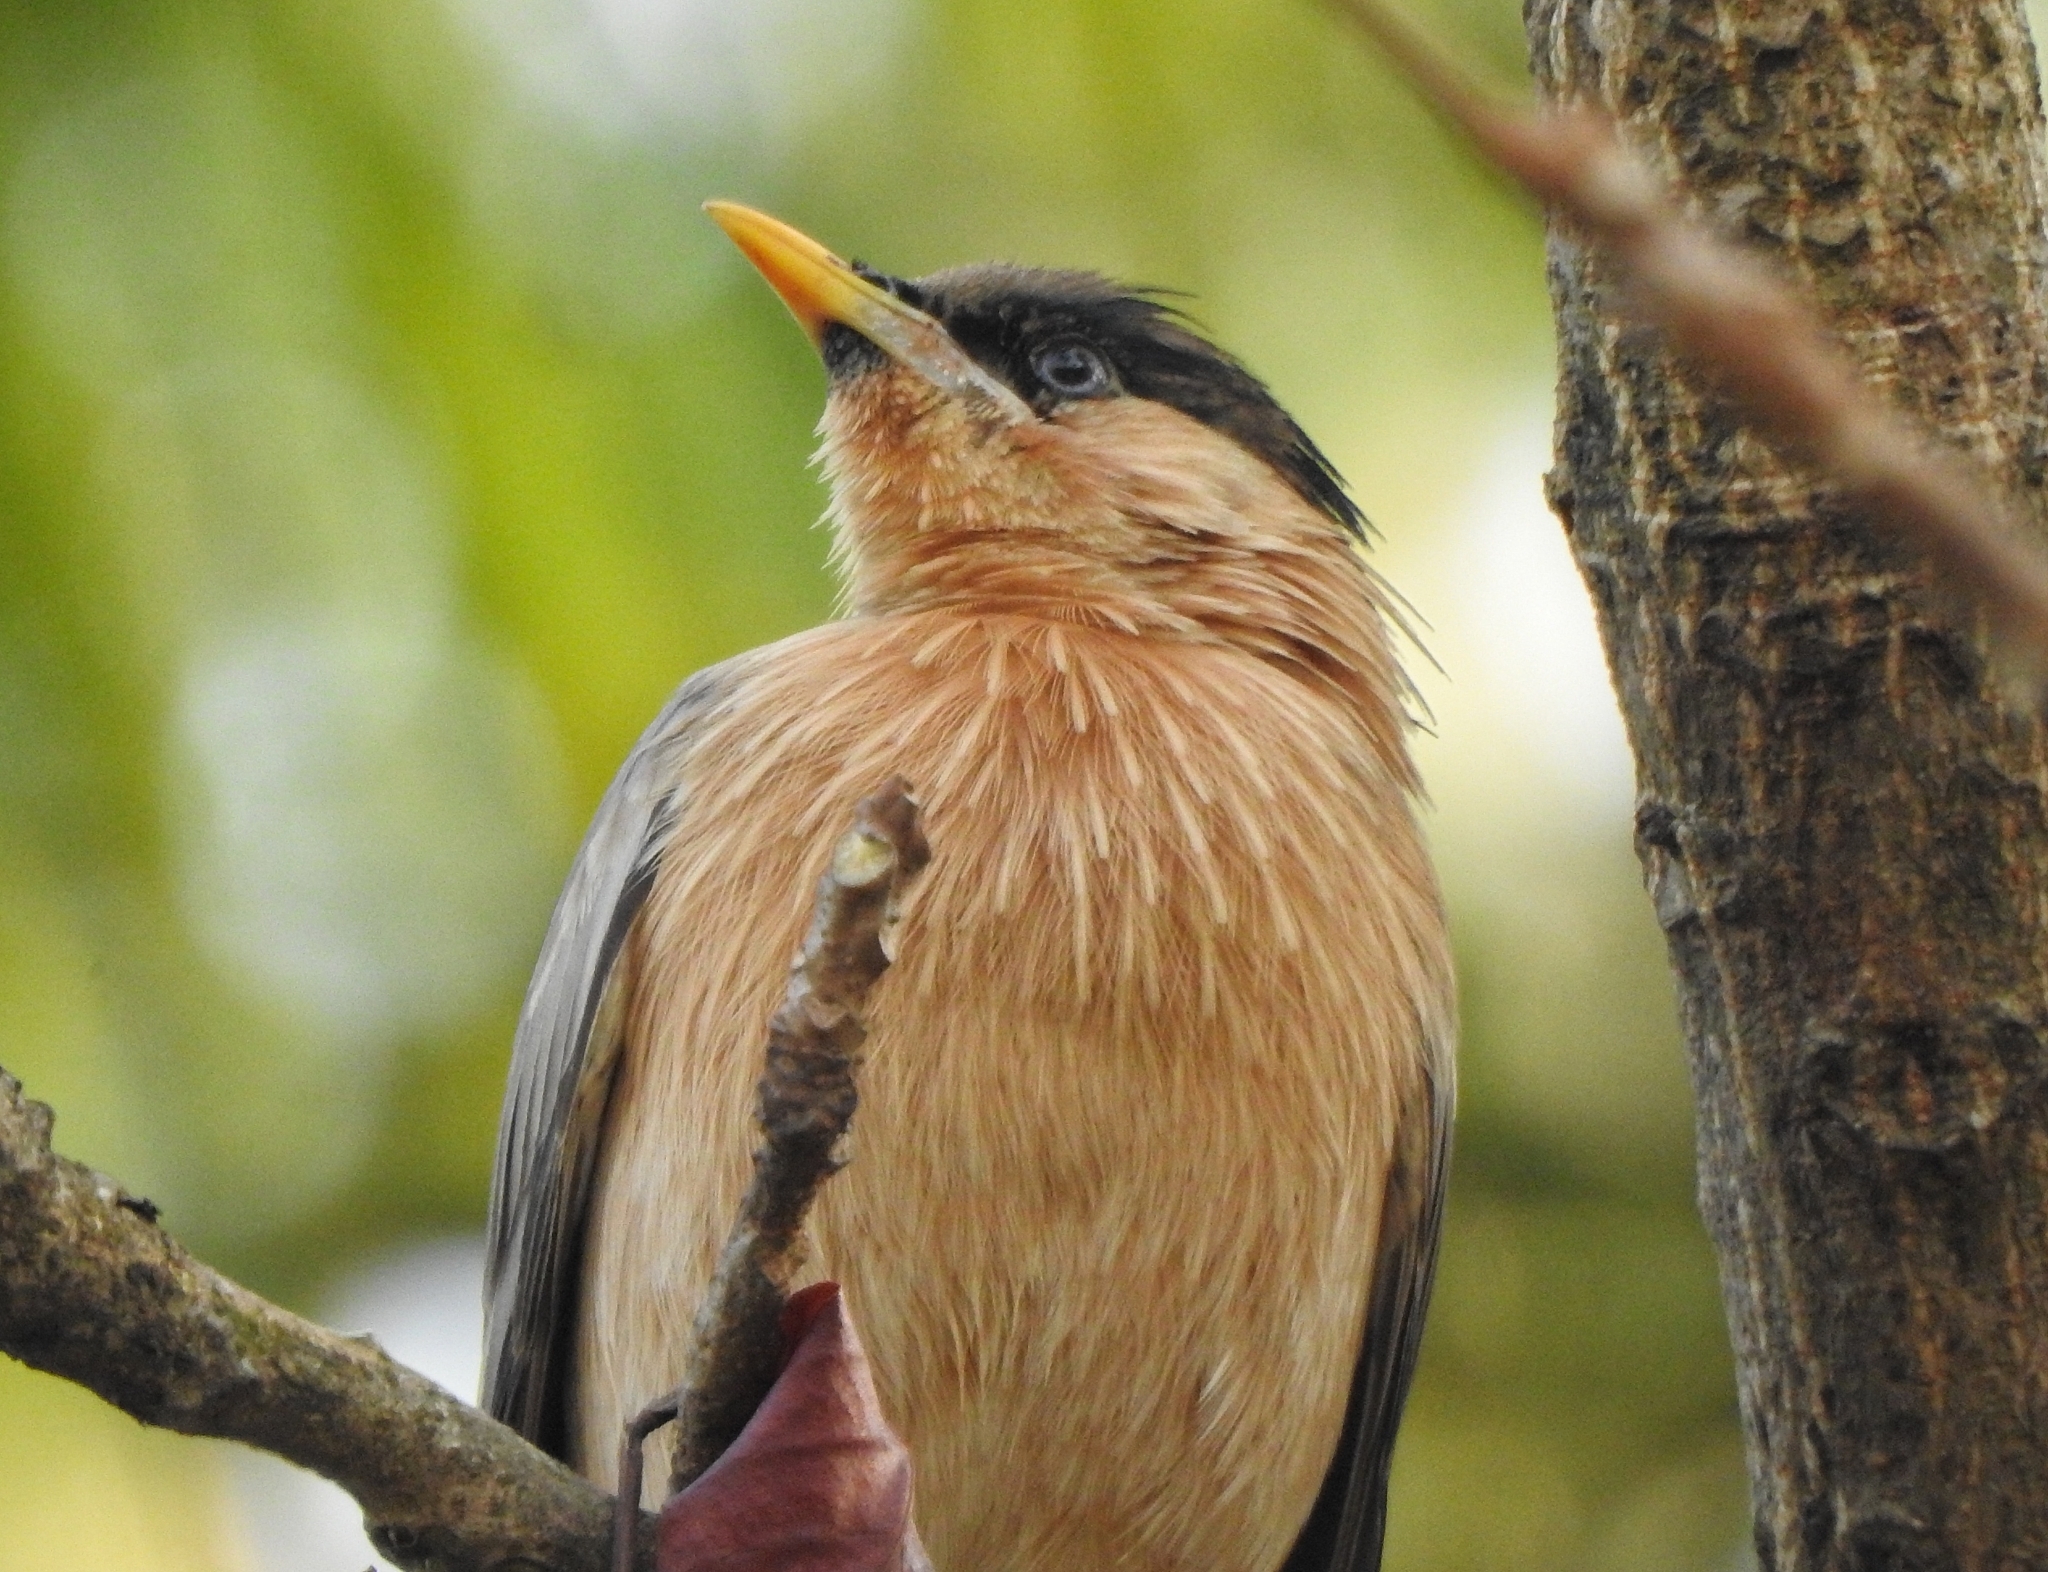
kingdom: Animalia
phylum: Chordata
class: Aves
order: Passeriformes
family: Sturnidae
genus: Sturnia
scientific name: Sturnia pagodarum
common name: Brahminy starling
